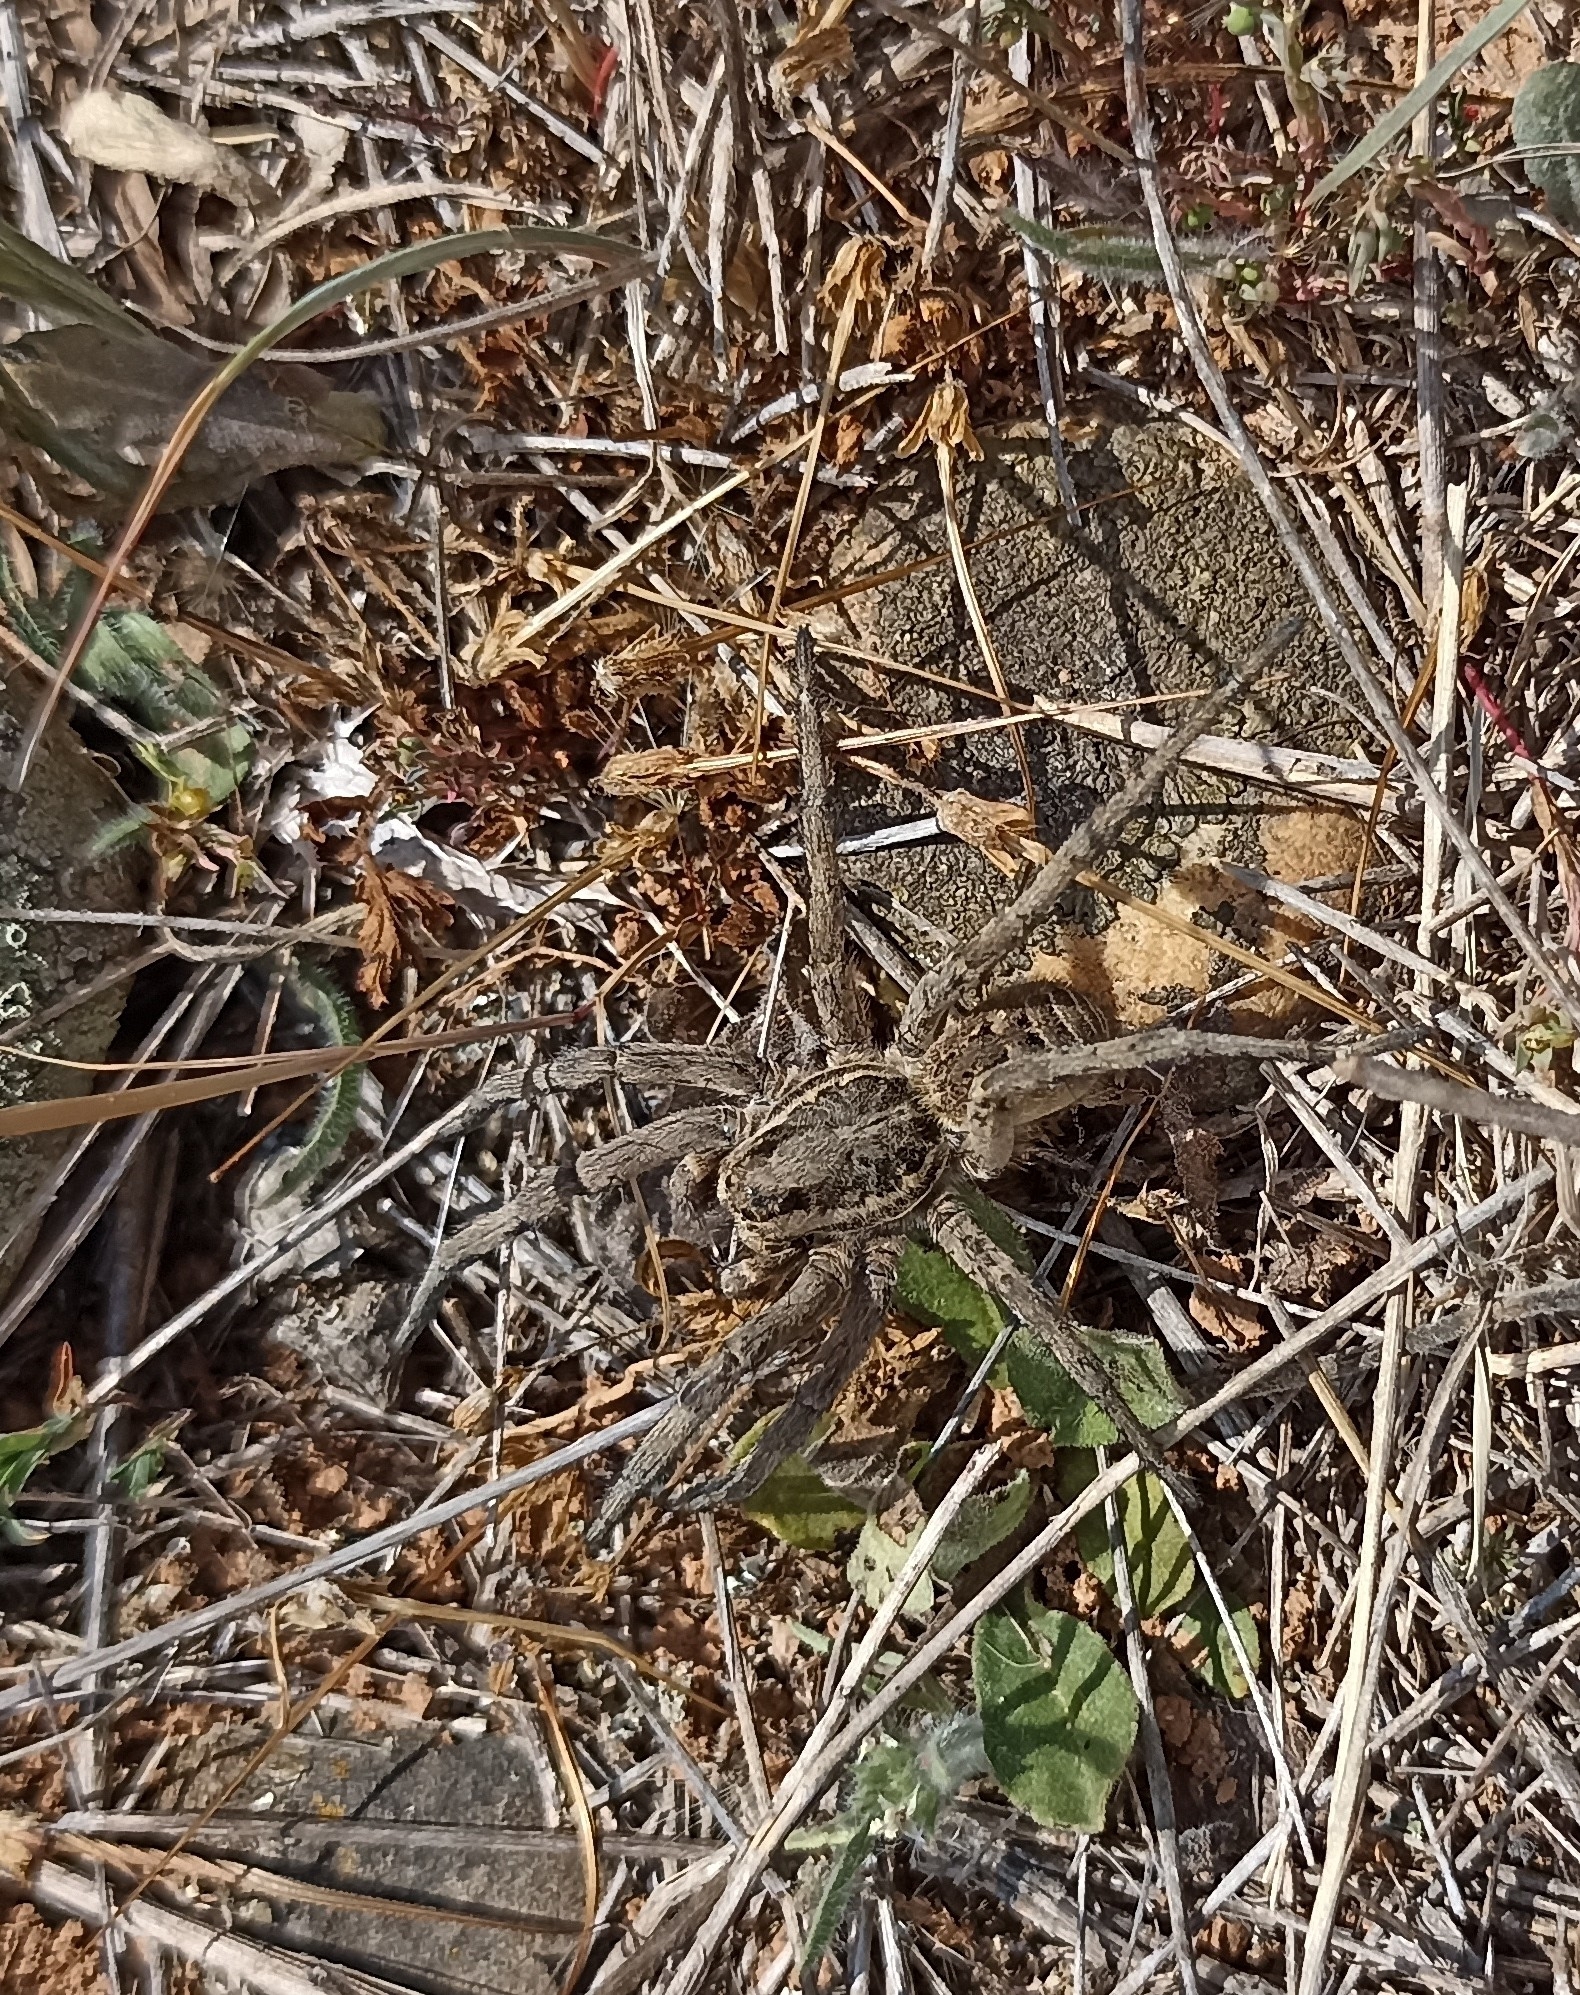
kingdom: Animalia
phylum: Arthropoda
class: Arachnida
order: Araneae
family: Lycosidae
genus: Lycosa
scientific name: Lycosa tarantula
